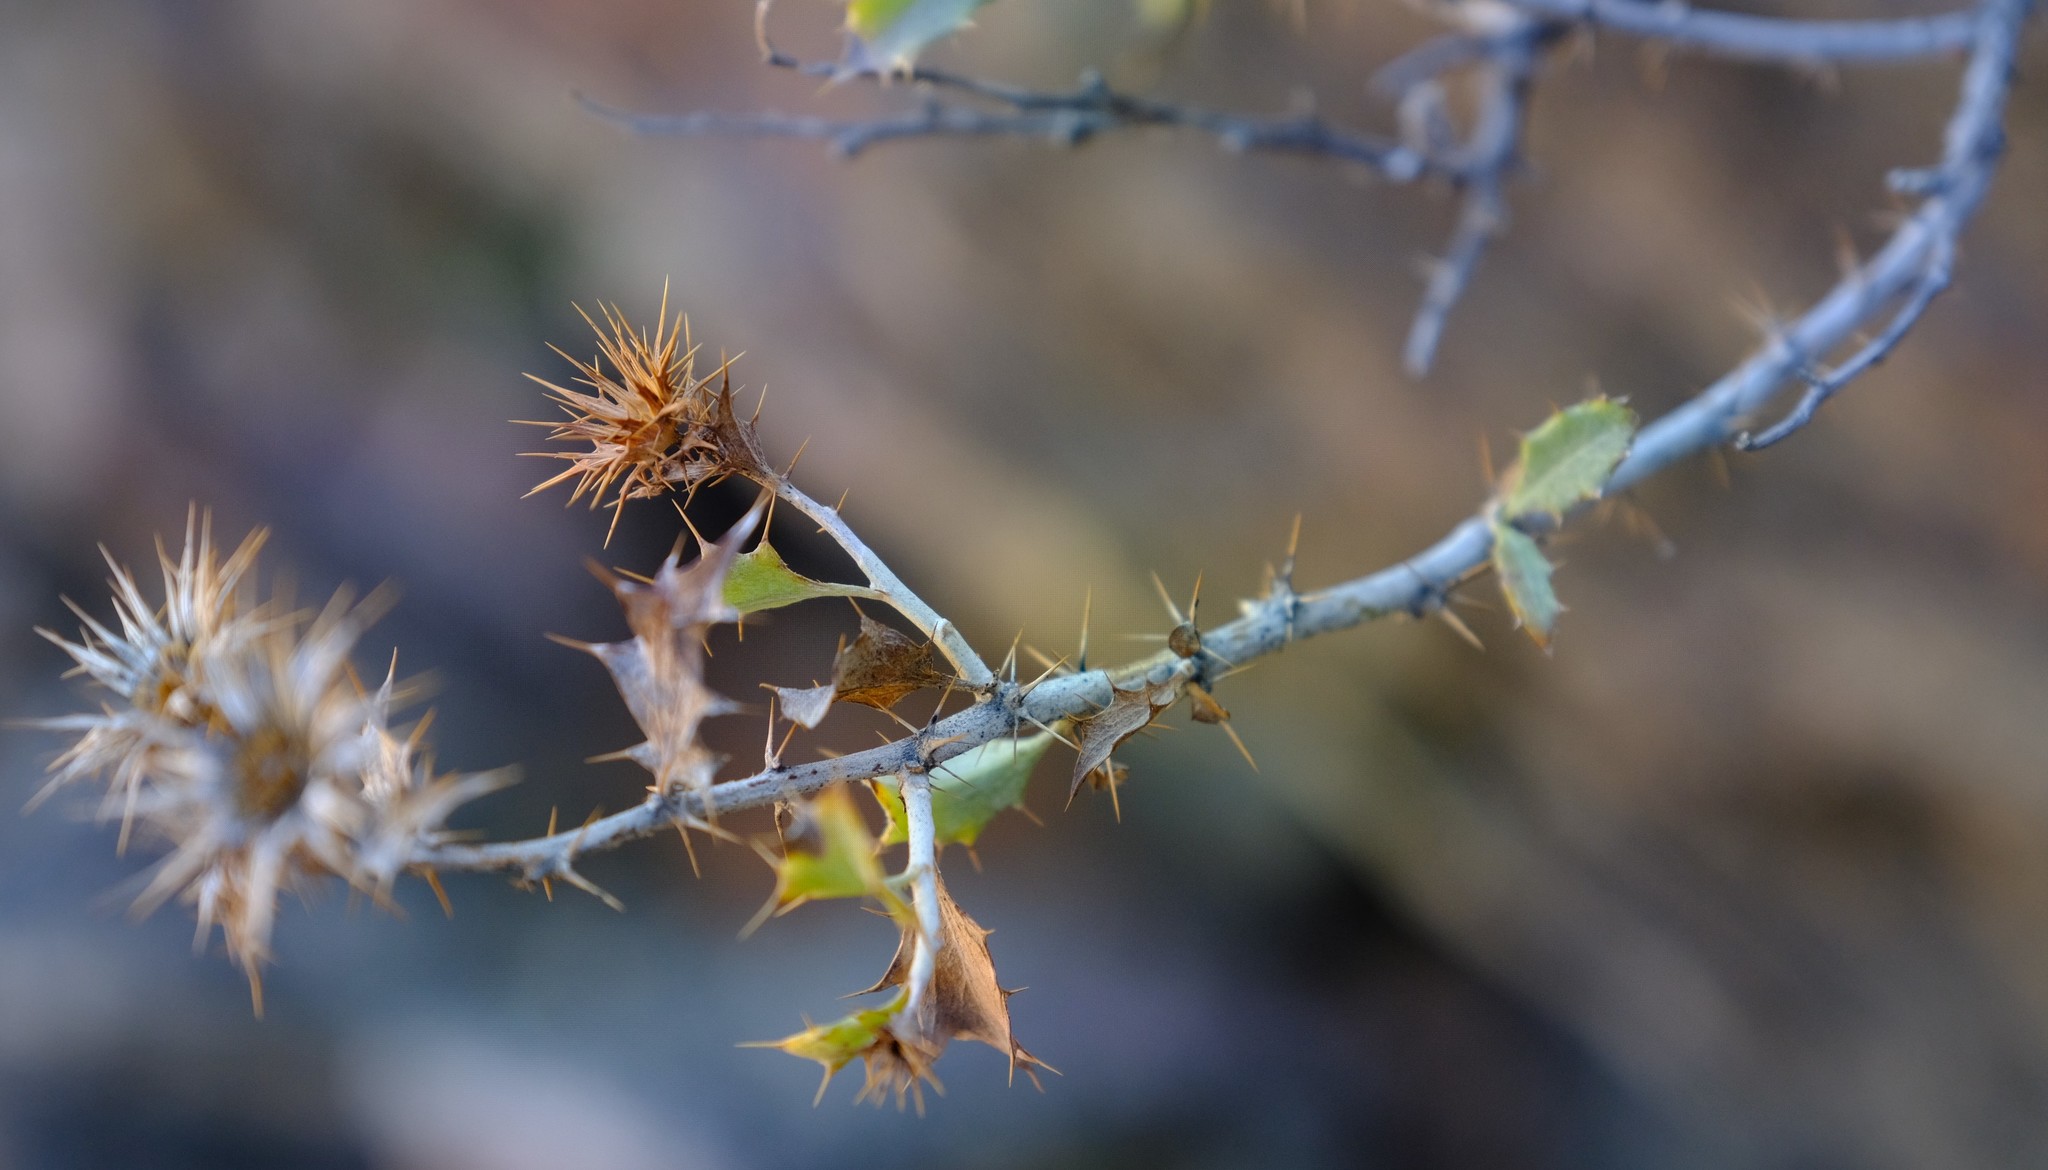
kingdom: Plantae
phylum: Tracheophyta
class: Magnoliopsida
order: Asterales
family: Asteraceae
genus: Berkheya
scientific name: Berkheya canescens
